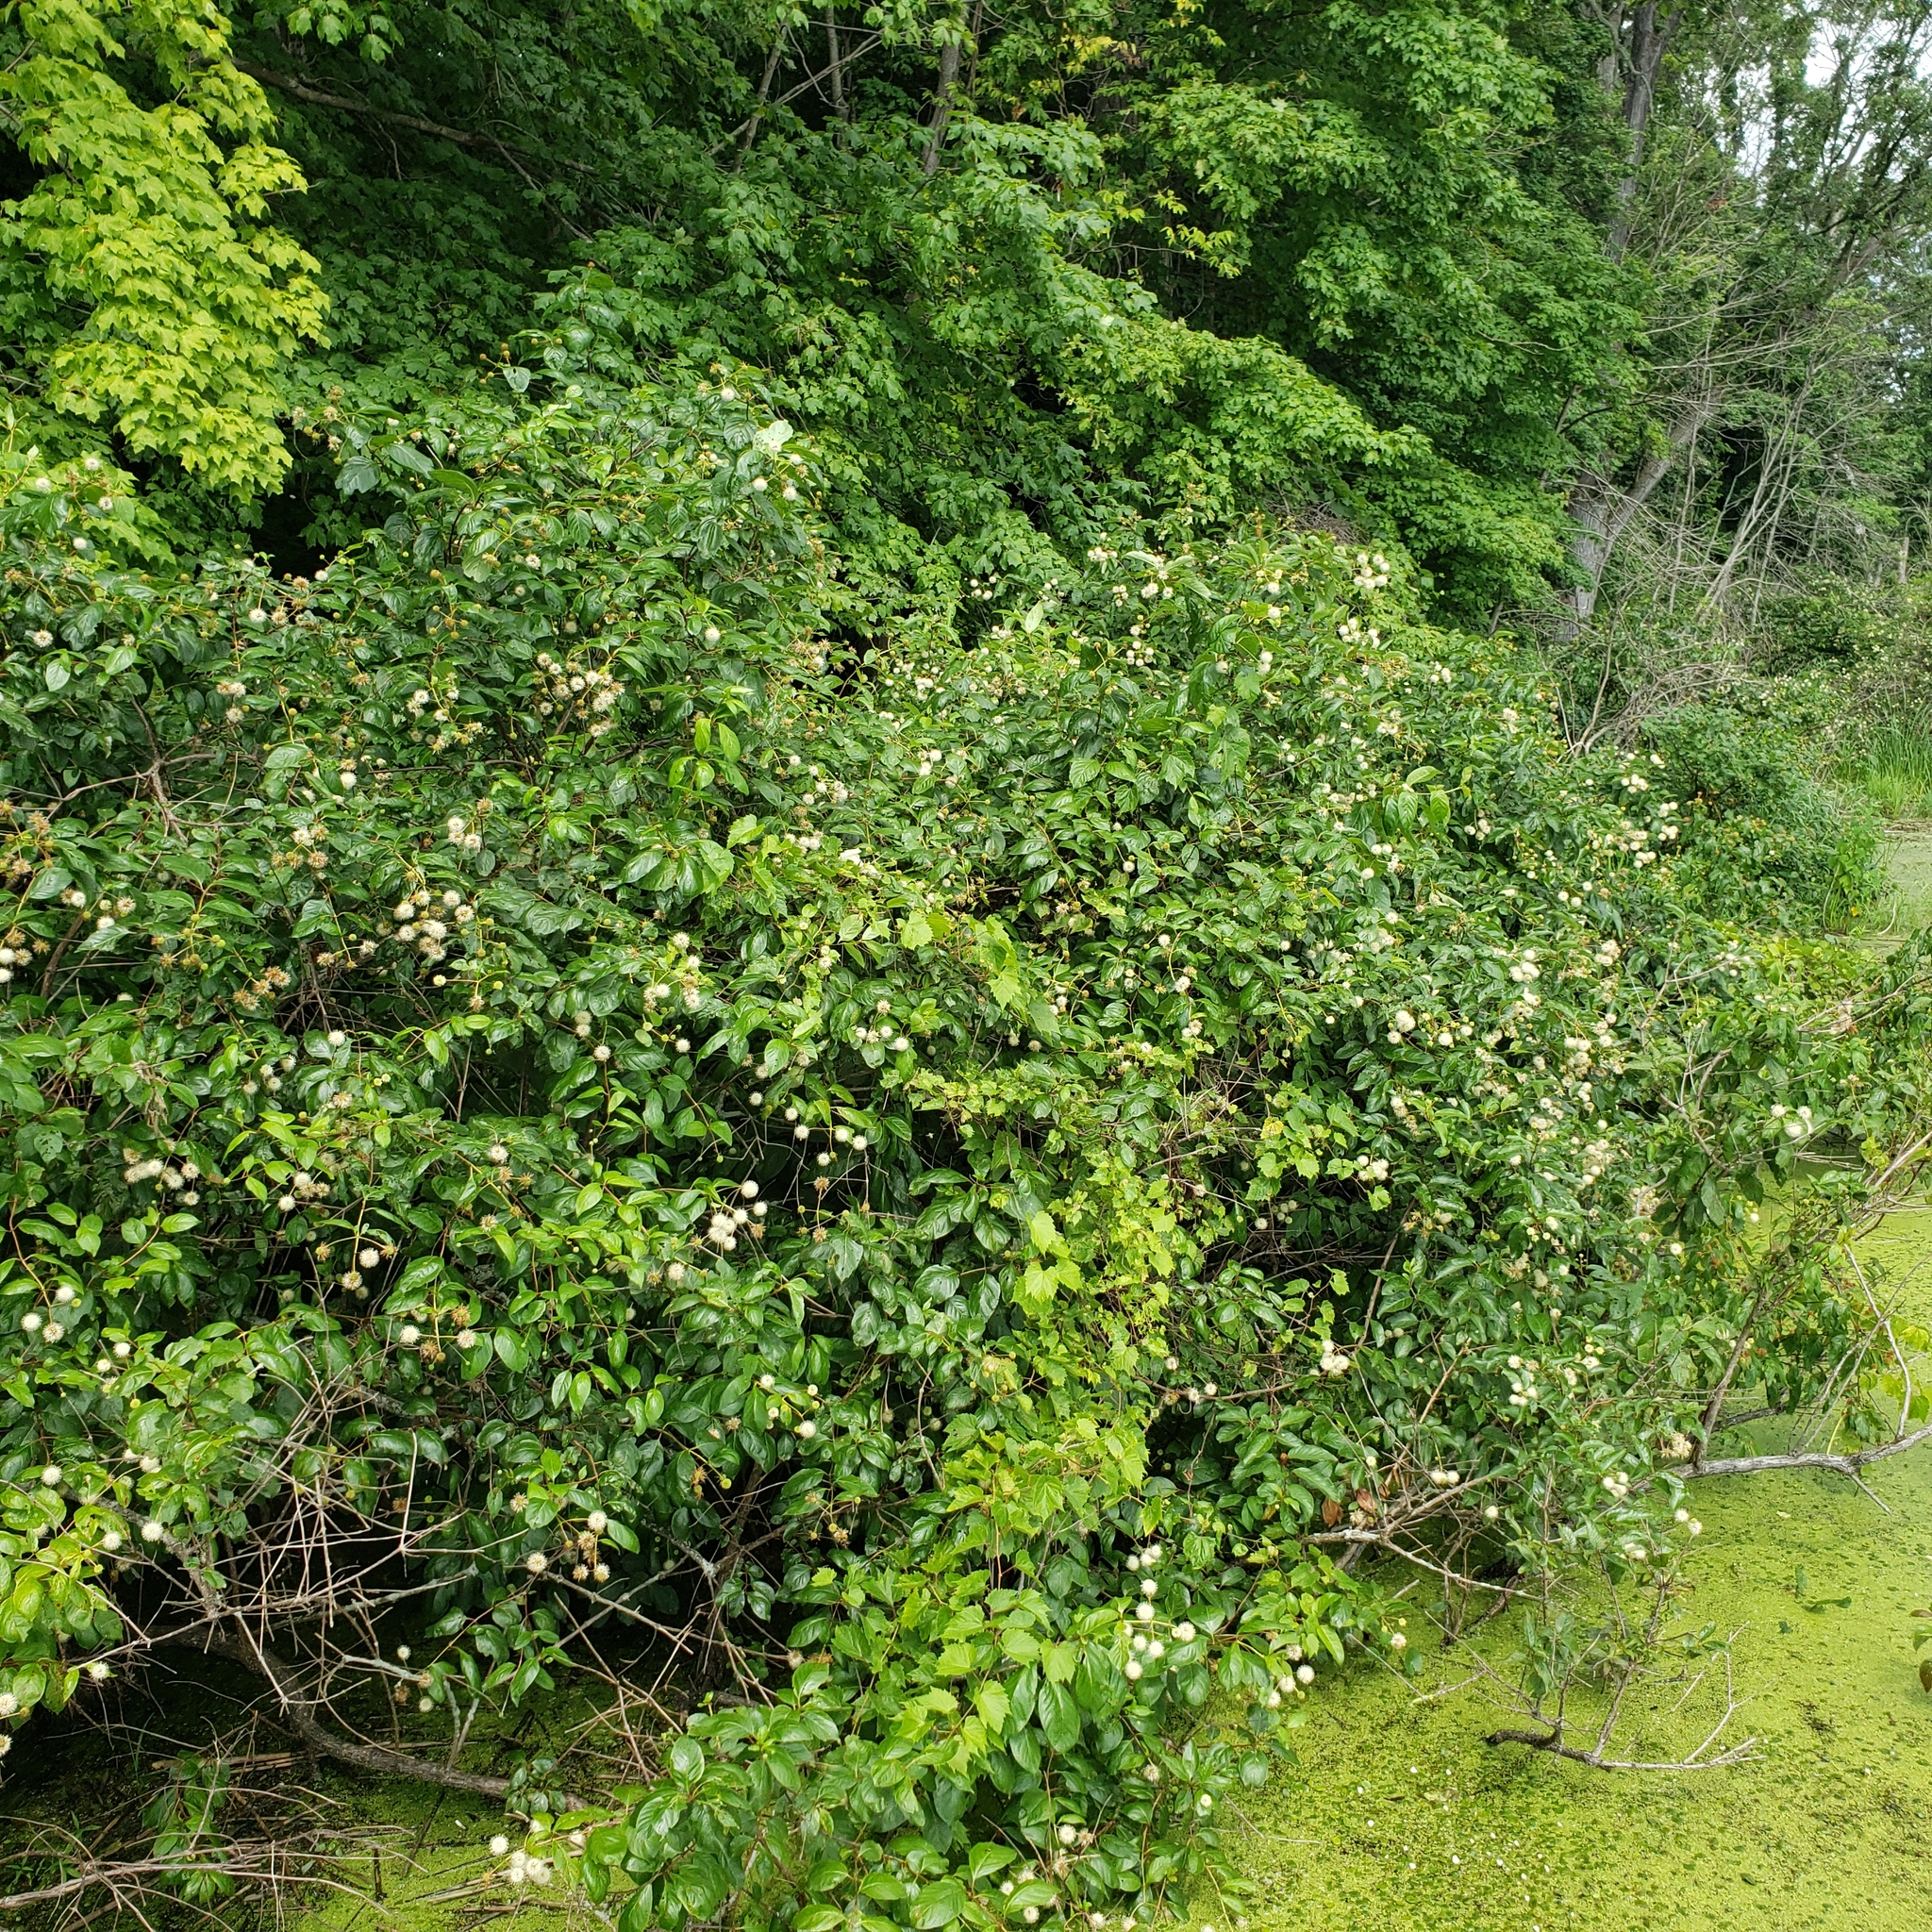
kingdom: Plantae
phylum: Tracheophyta
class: Magnoliopsida
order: Gentianales
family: Rubiaceae
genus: Cephalanthus
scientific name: Cephalanthus occidentalis
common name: Button-willow
